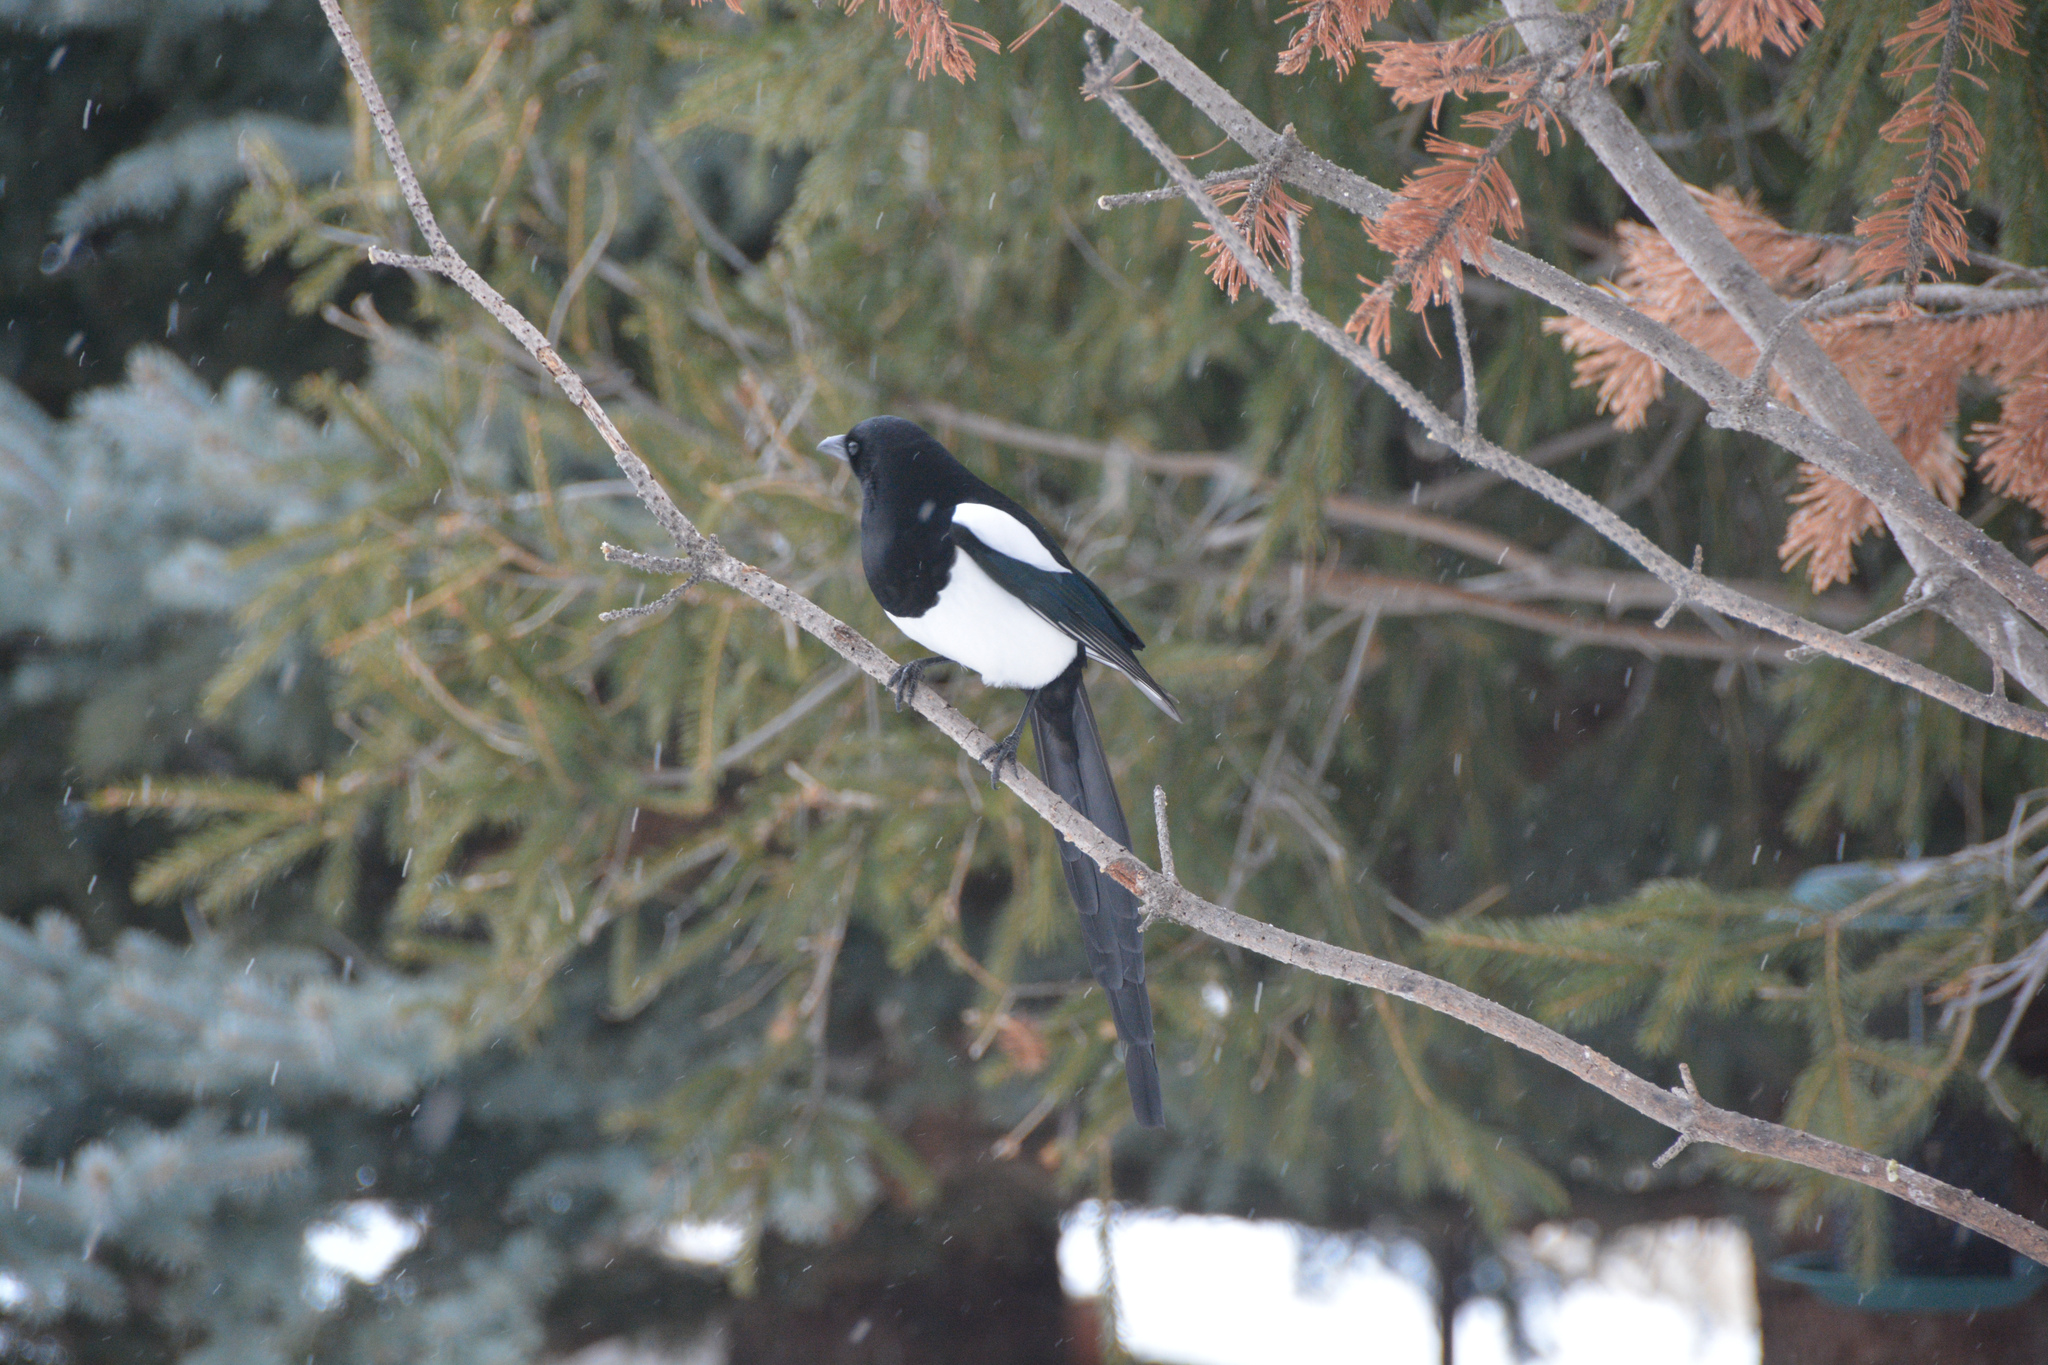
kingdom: Animalia
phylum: Chordata
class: Aves
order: Passeriformes
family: Corvidae
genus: Pica
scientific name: Pica hudsonia
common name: Black-billed magpie
